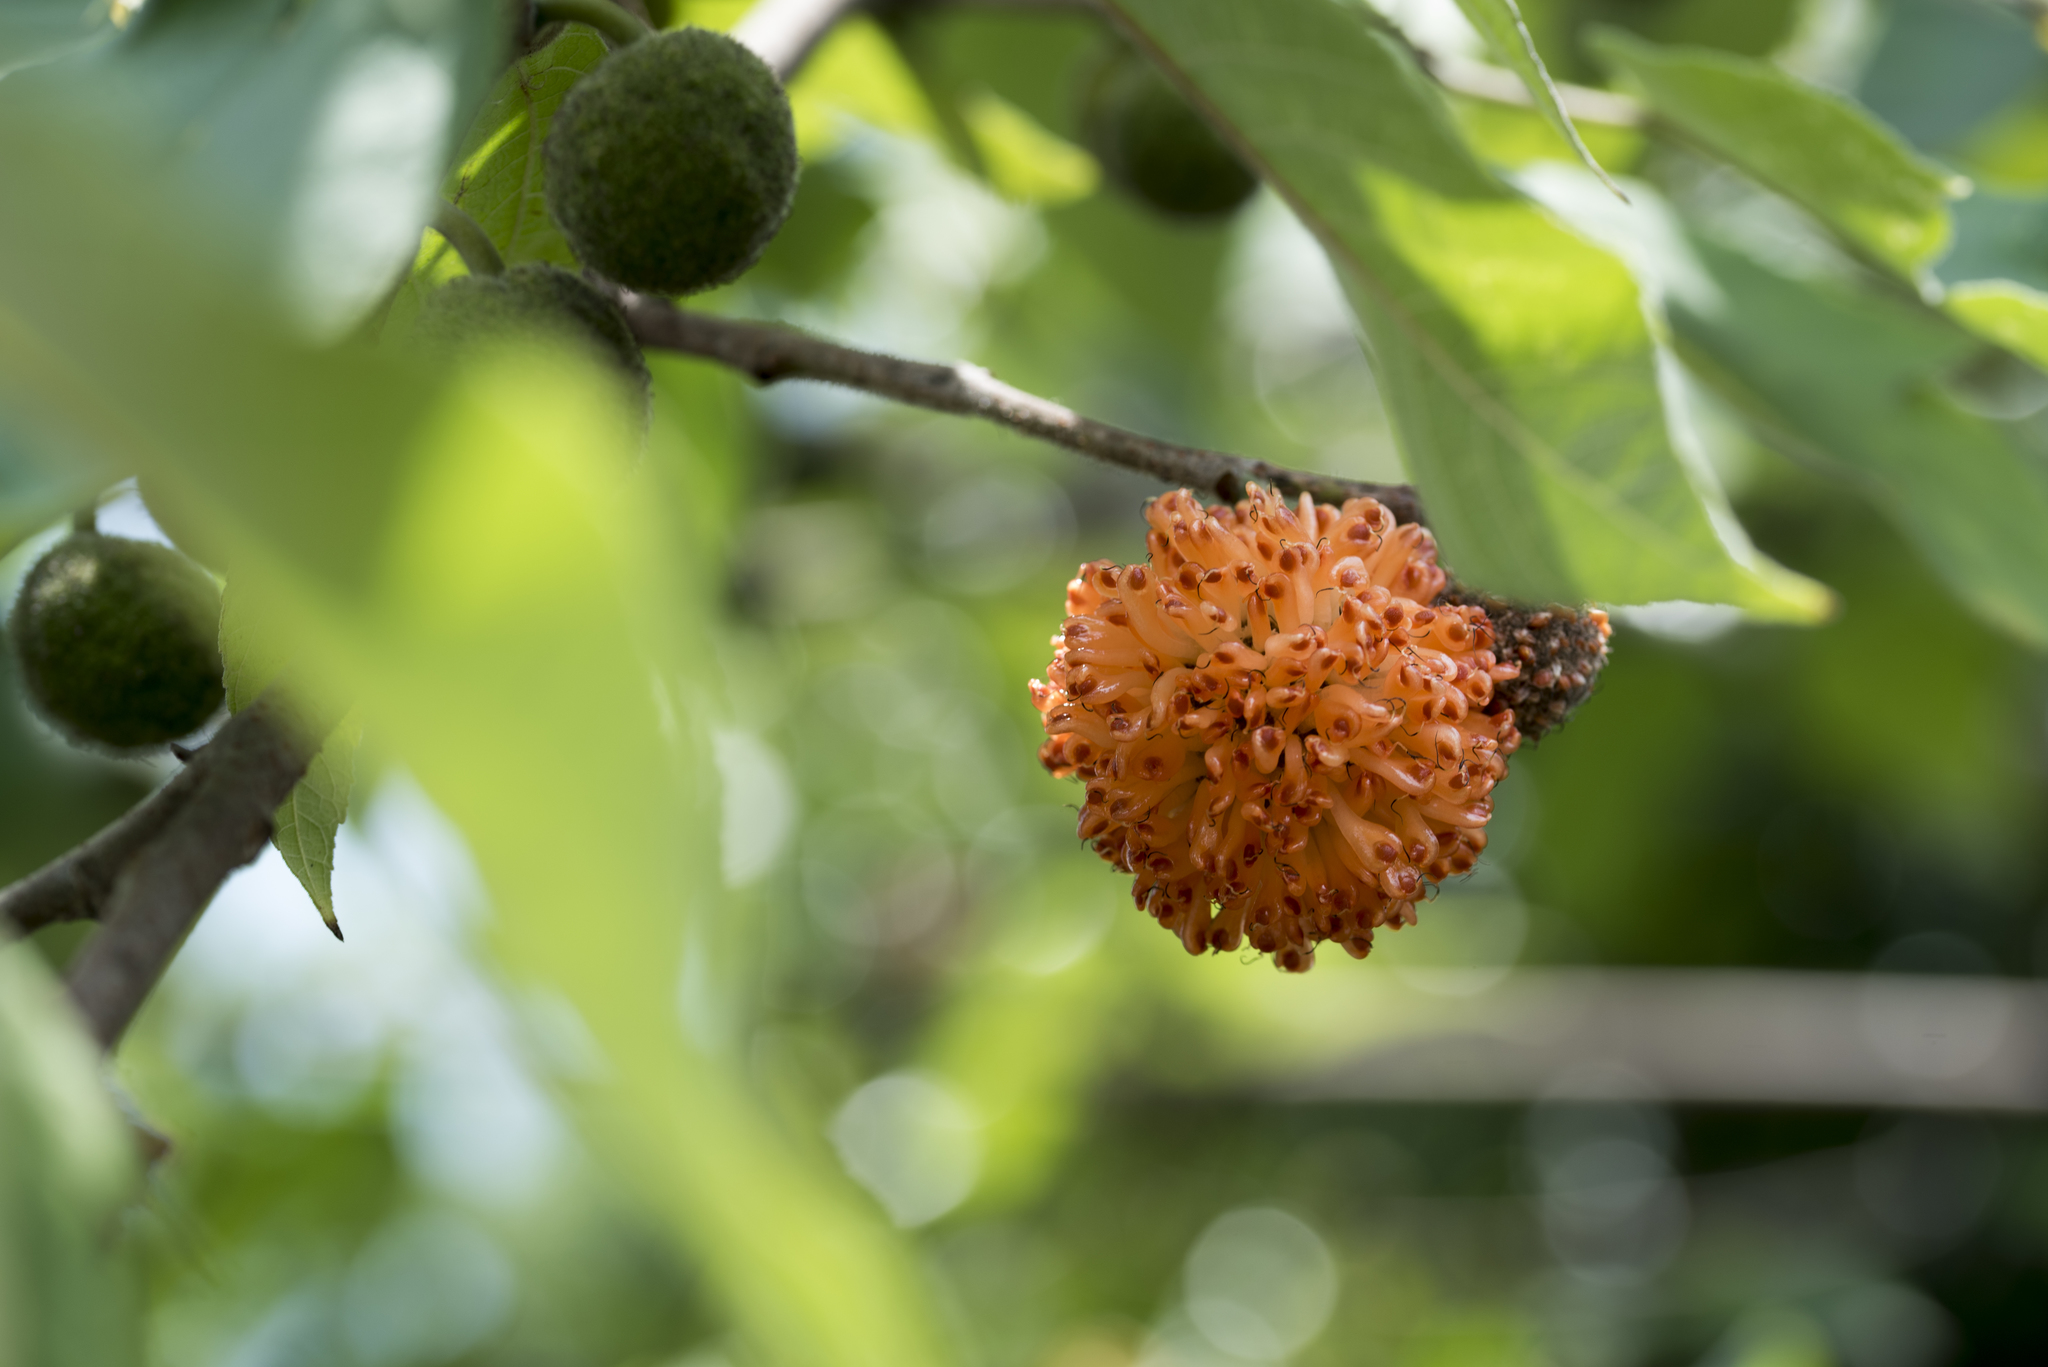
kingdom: Plantae
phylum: Tracheophyta
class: Magnoliopsida
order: Rosales
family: Moraceae
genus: Broussonetia
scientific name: Broussonetia papyrifera
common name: Paper mulberry
